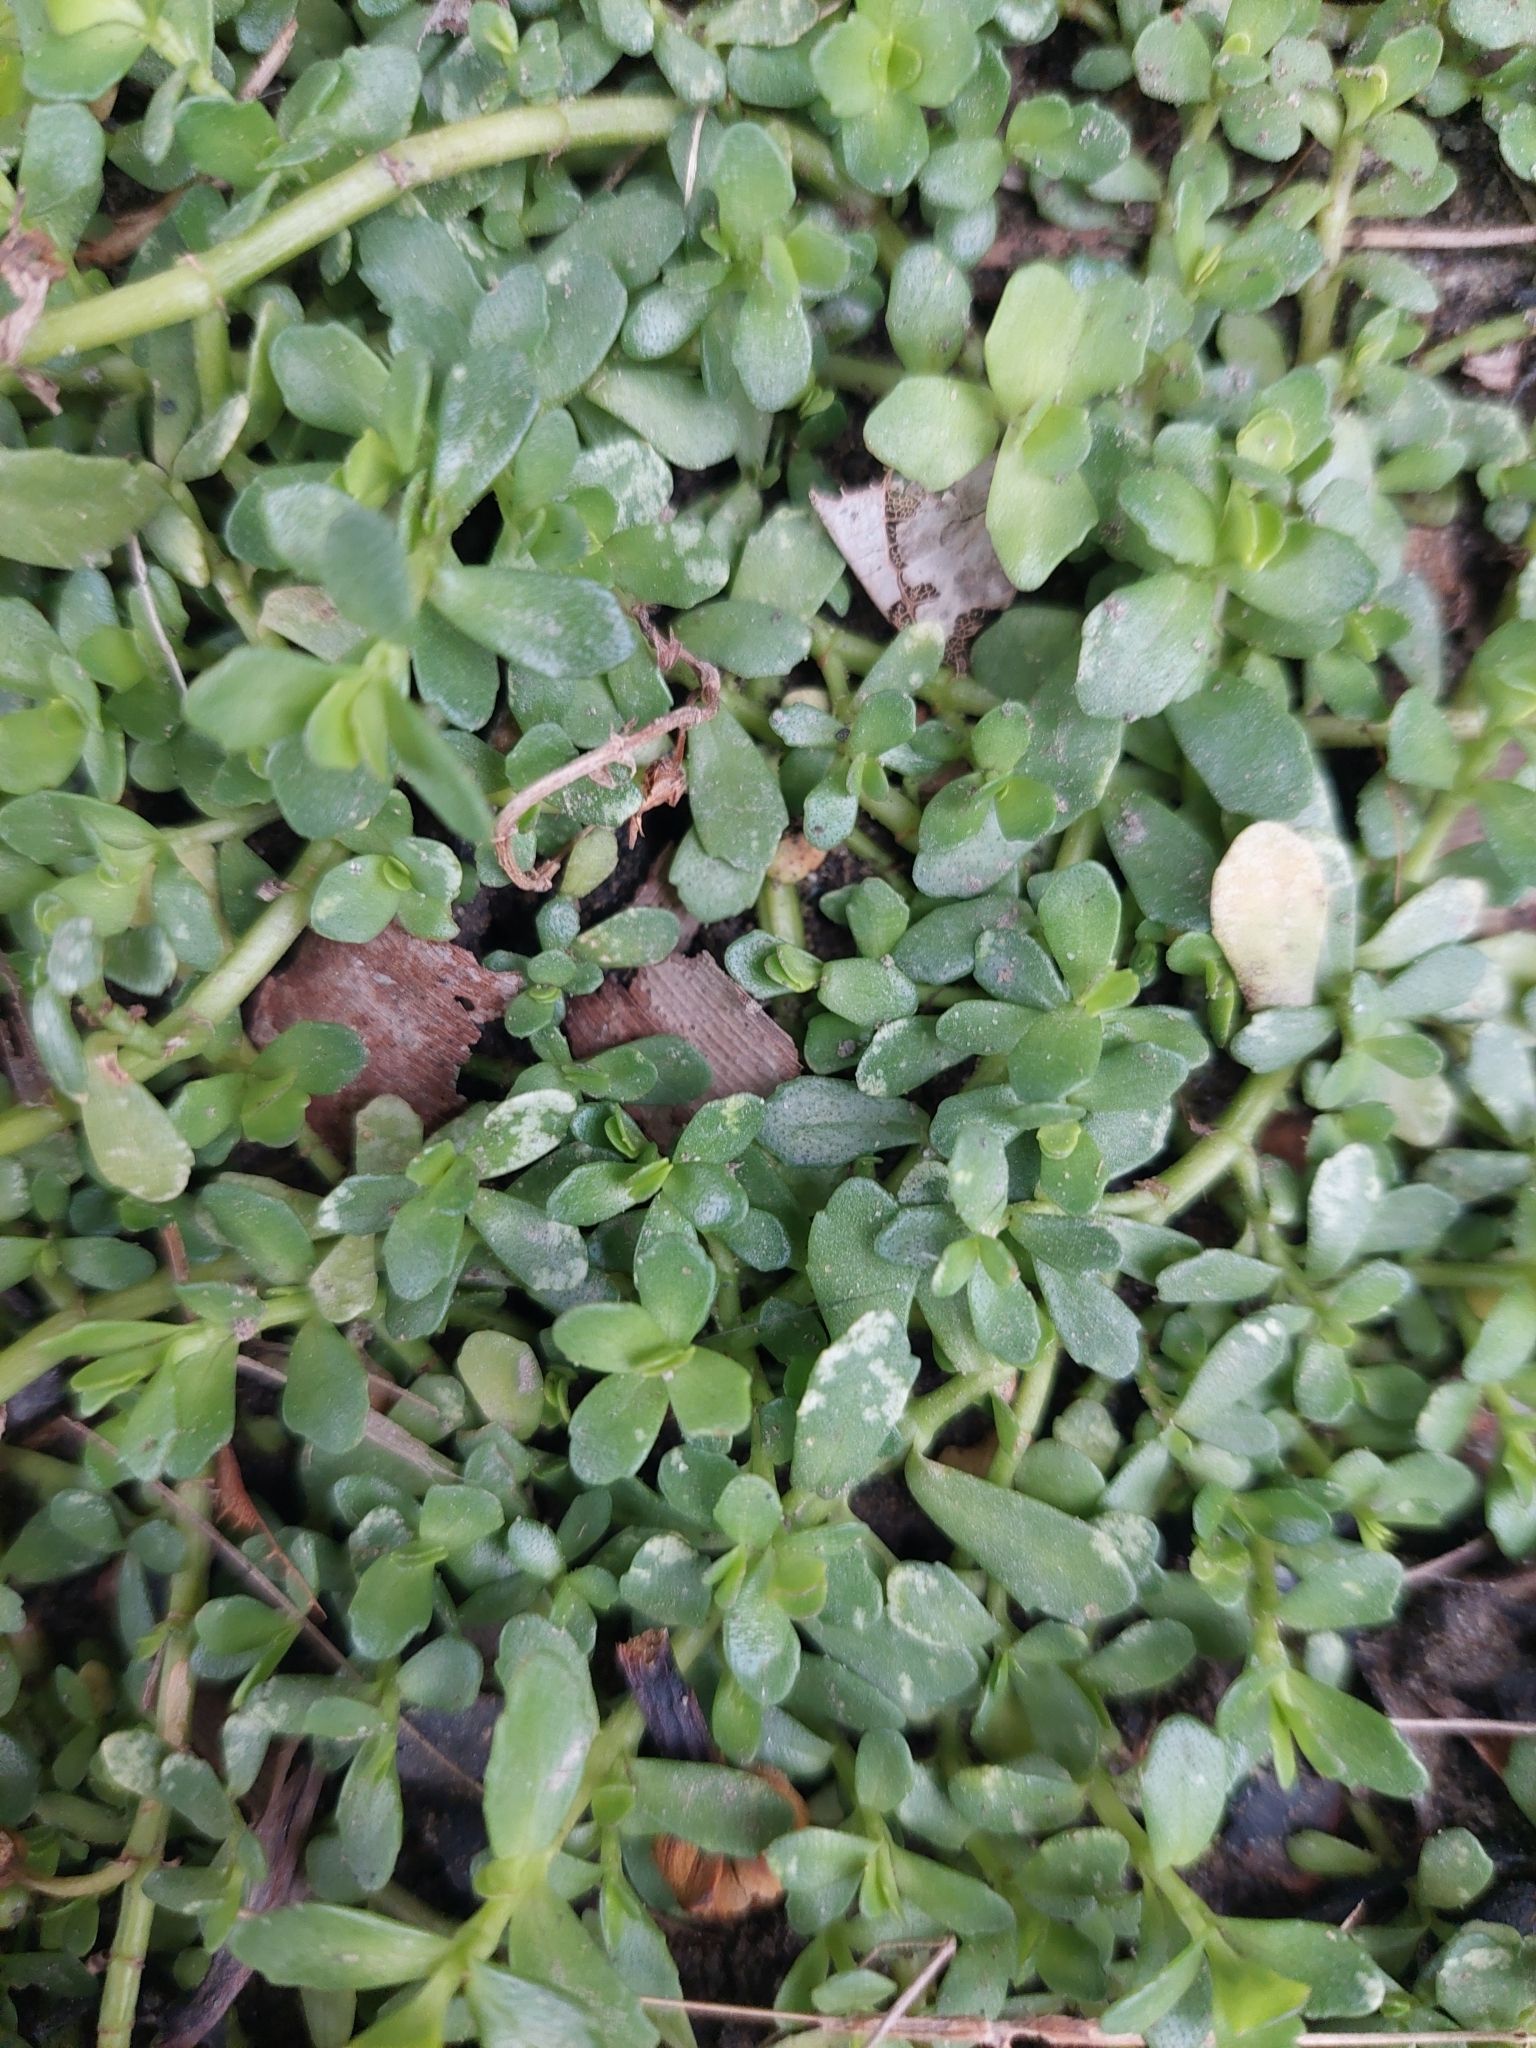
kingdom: Plantae
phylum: Tracheophyta
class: Magnoliopsida
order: Lamiales
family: Plantaginaceae
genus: Bacopa
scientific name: Bacopa monnieri
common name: Indian-pennywort
